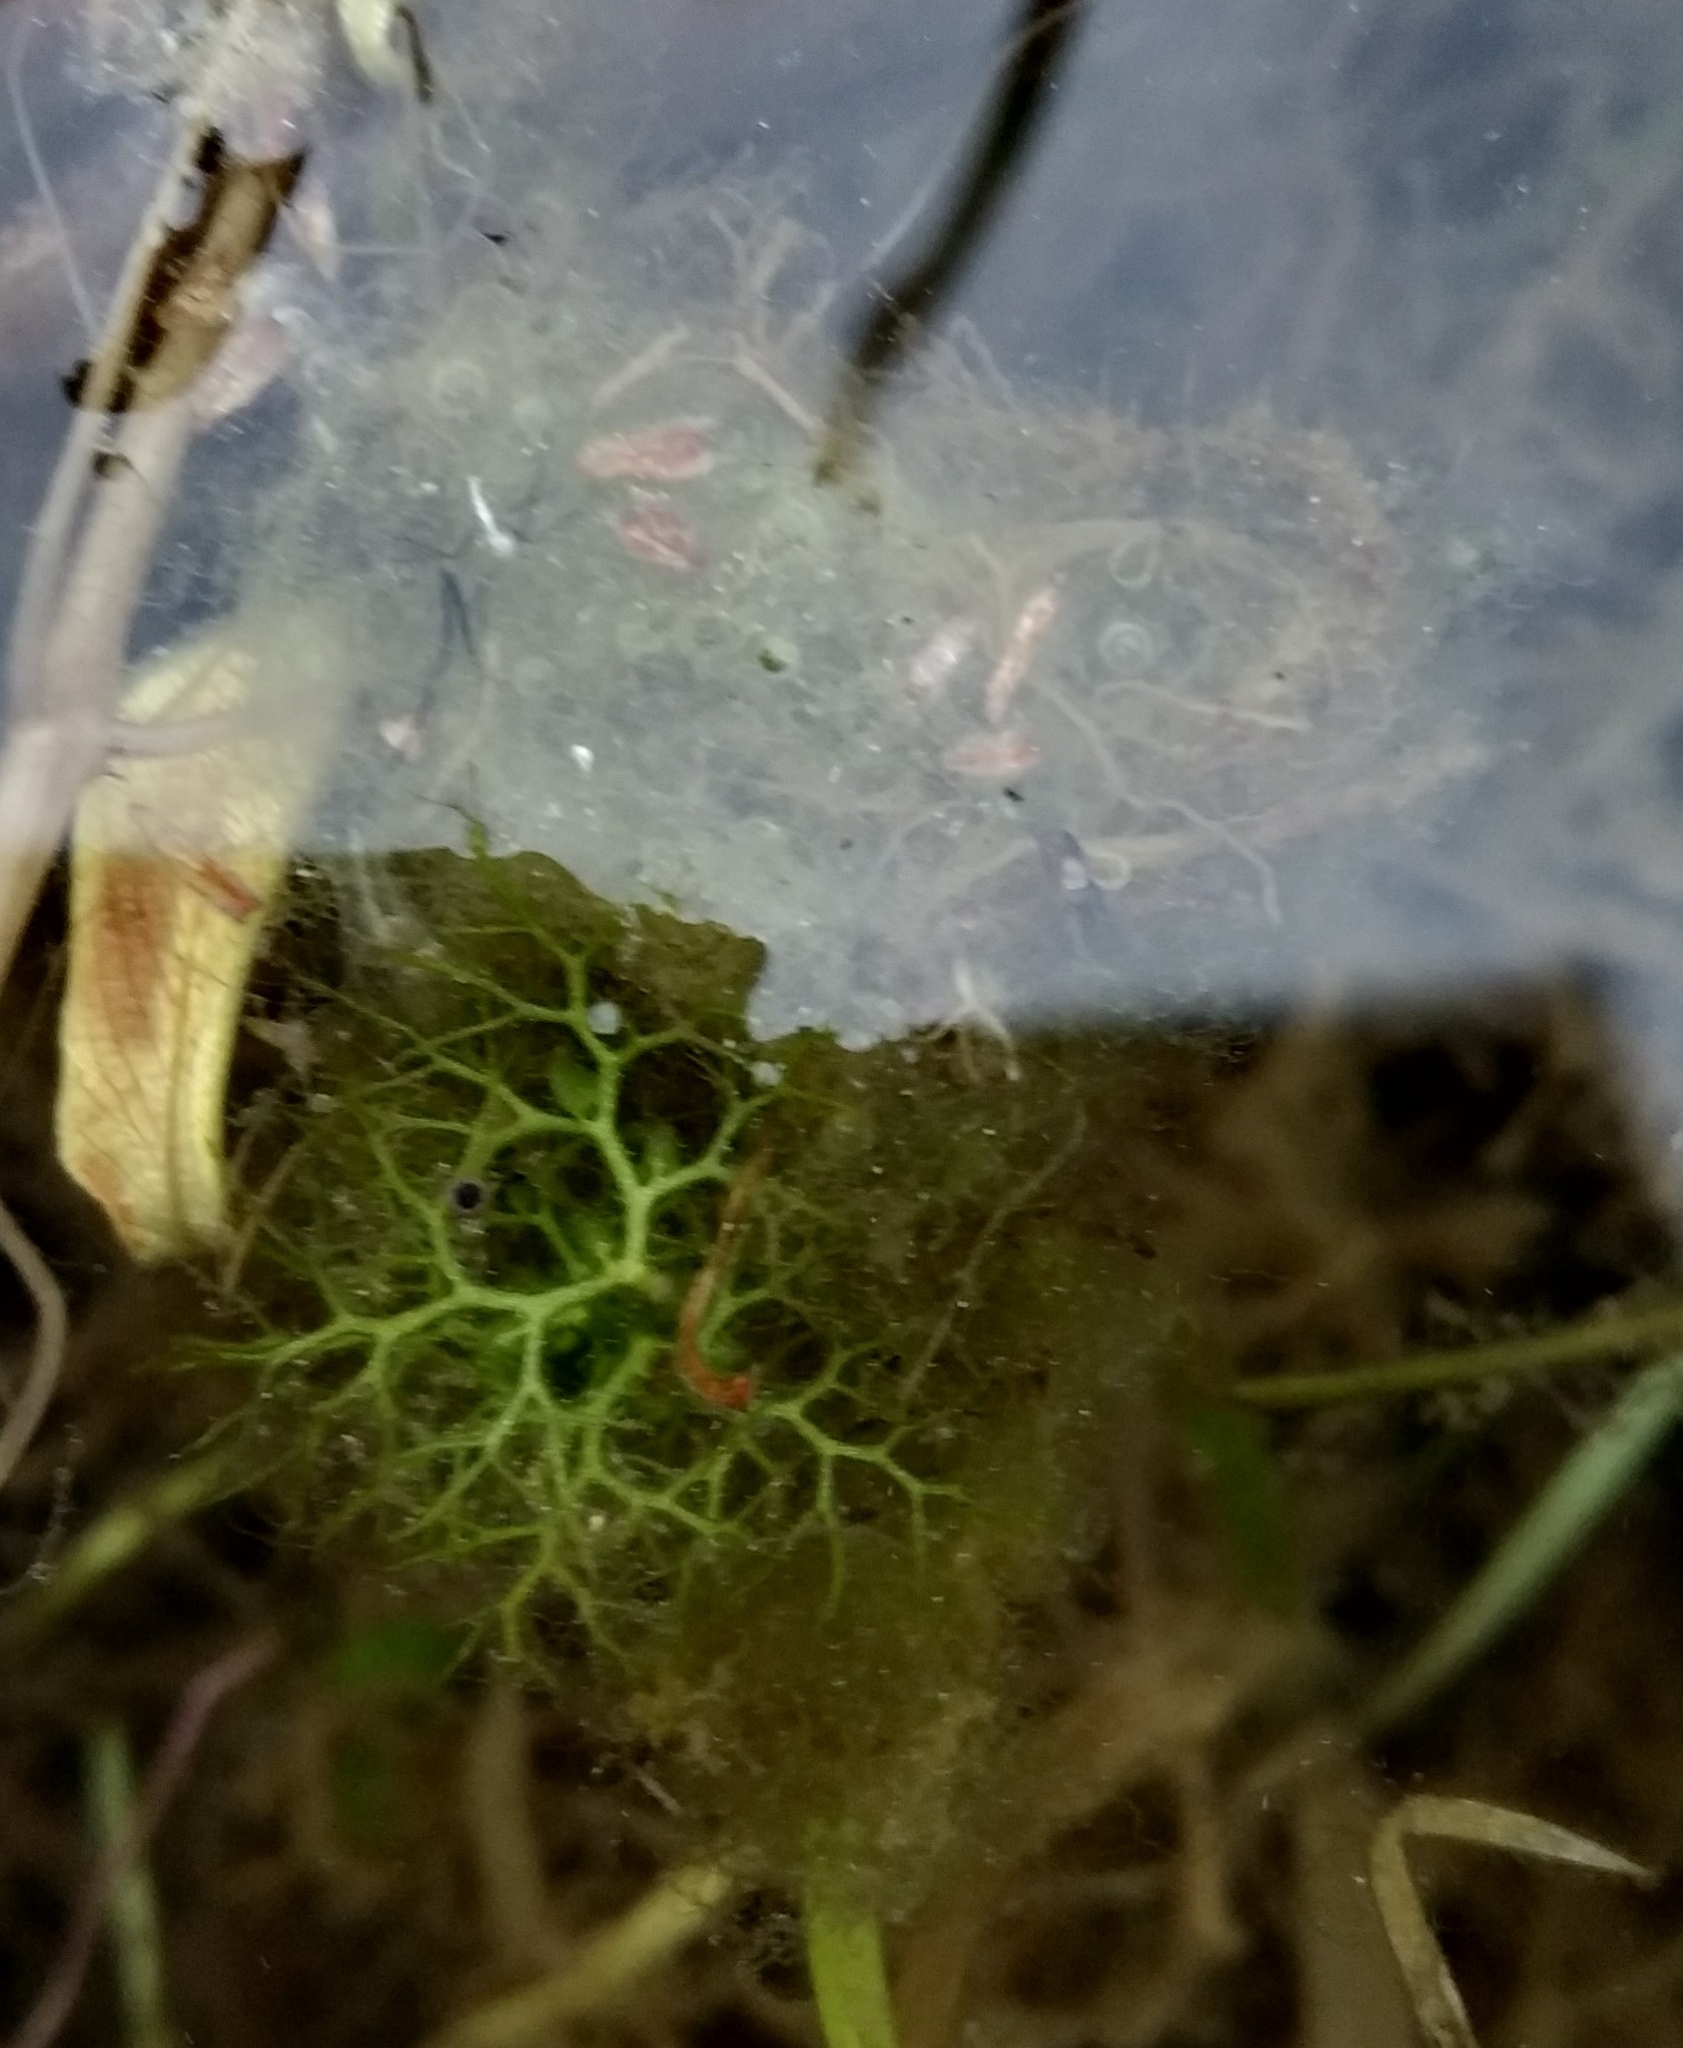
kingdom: Plantae
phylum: Tracheophyta
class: Magnoliopsida
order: Lamiales
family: Lentibulariaceae
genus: Utricularia
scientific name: Utricularia
